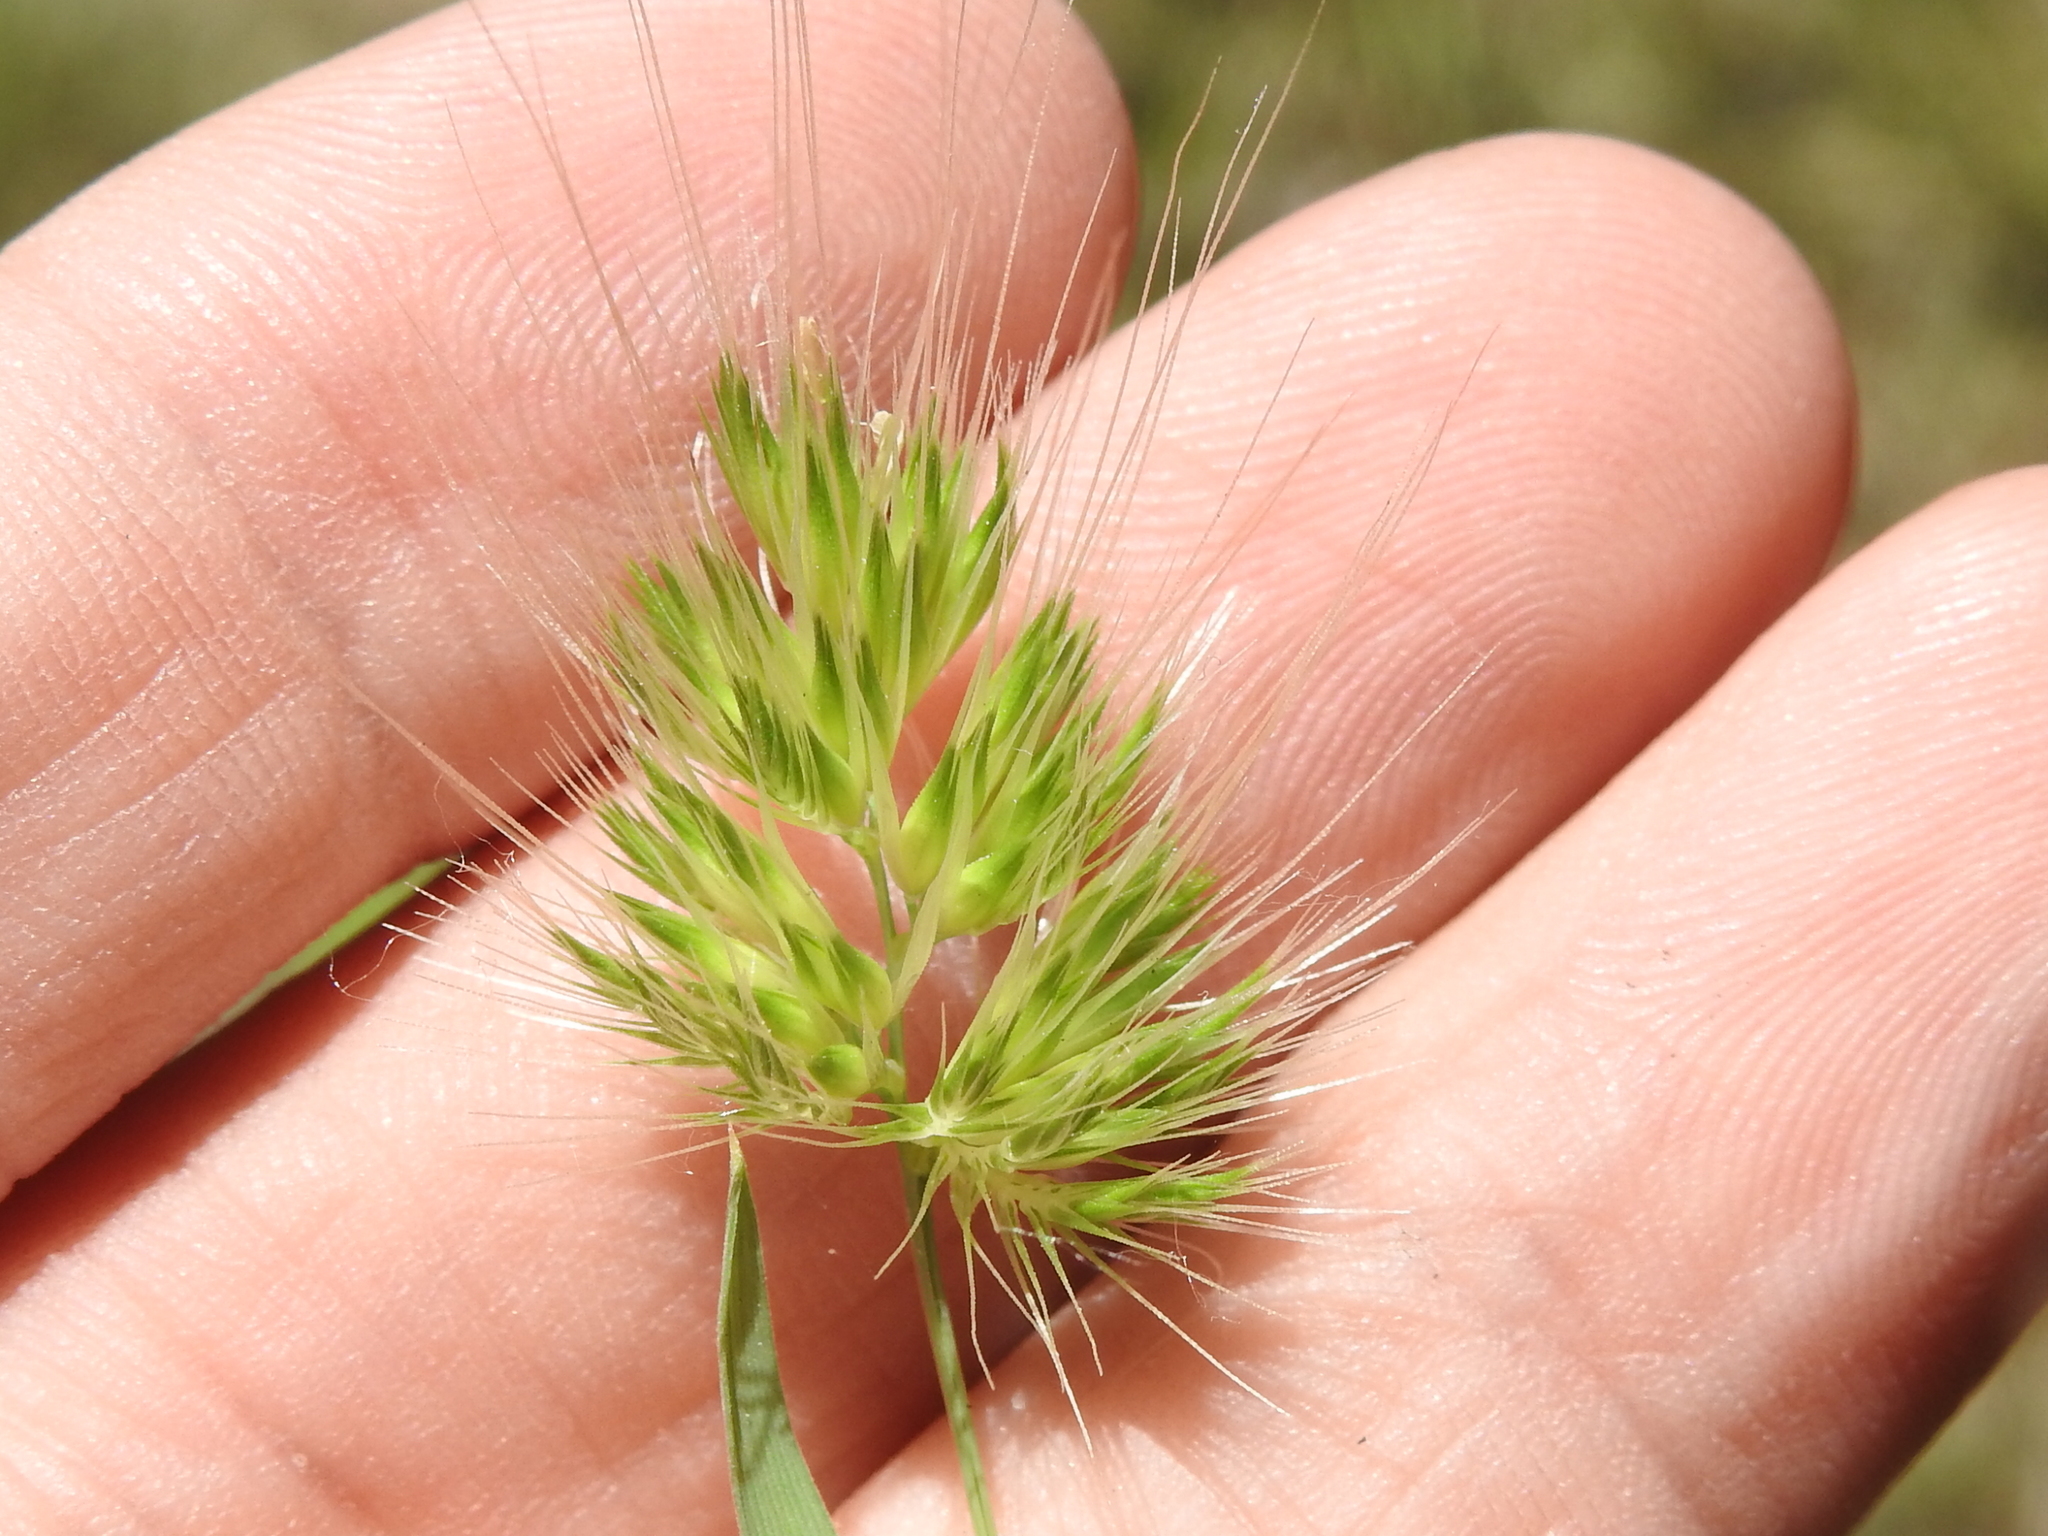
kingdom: Plantae
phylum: Tracheophyta
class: Liliopsida
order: Poales
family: Poaceae
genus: Cynosurus
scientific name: Cynosurus echinatus
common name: Rough dog's-tail
